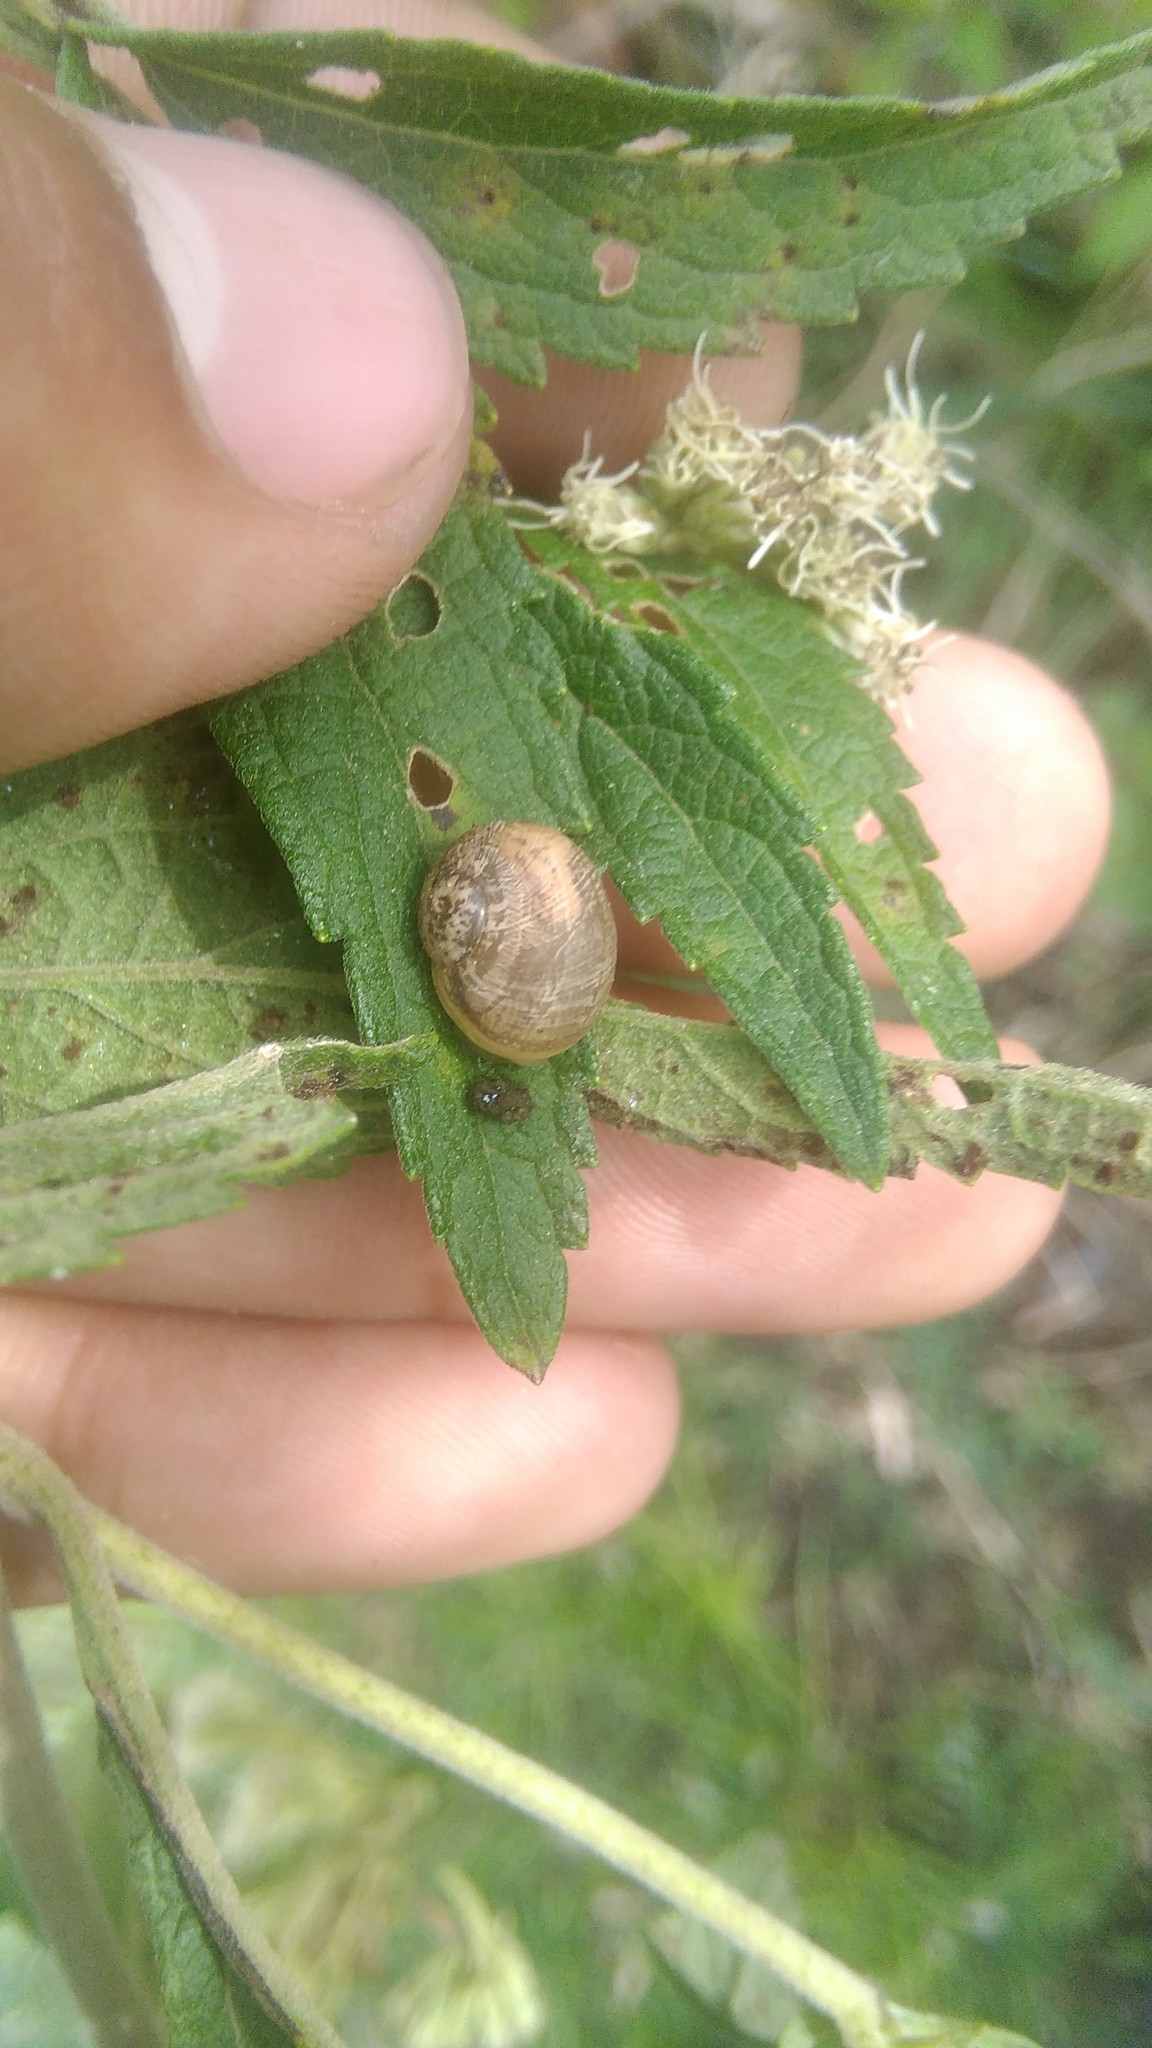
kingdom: Animalia
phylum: Mollusca
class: Gastropoda
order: Stylommatophora
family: Helicidae
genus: Cornu
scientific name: Cornu aspersum
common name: Brown garden snail
